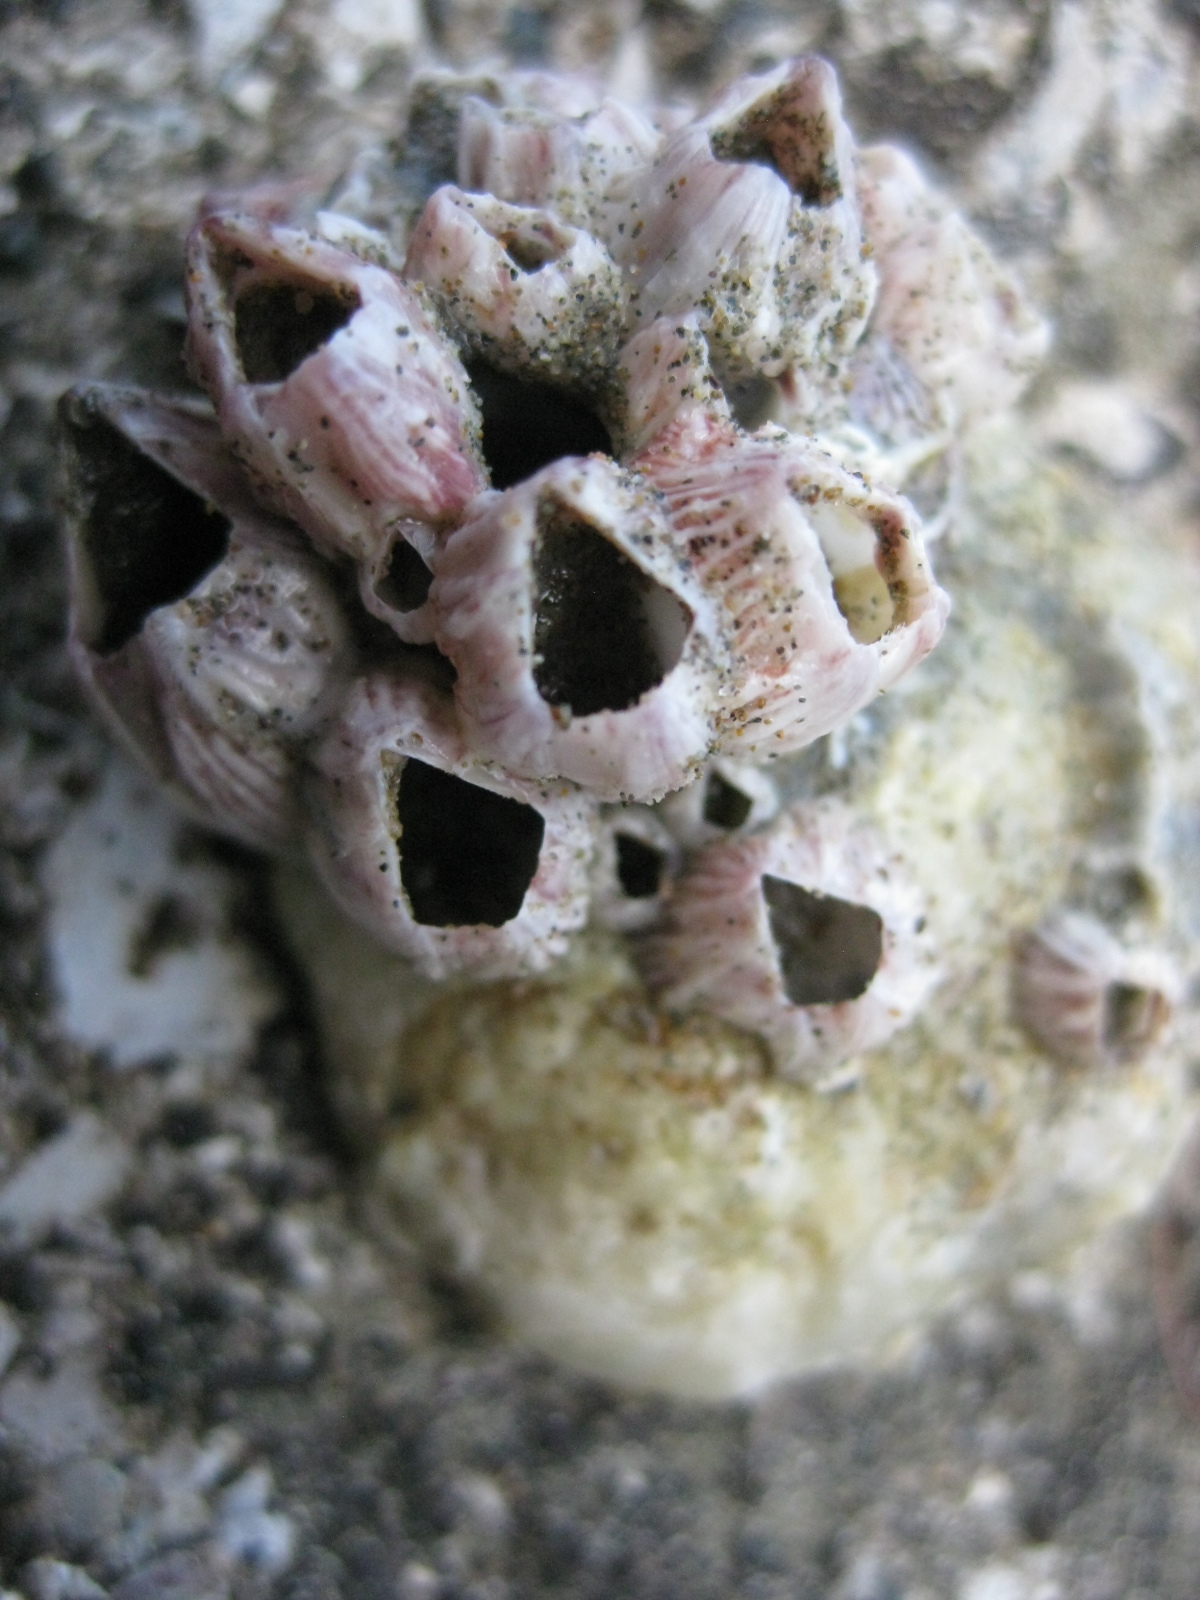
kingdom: Animalia
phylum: Arthropoda
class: Maxillopoda
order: Sessilia
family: Balanidae
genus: Balanus
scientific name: Balanus trigonus
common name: Triangle barnacle
